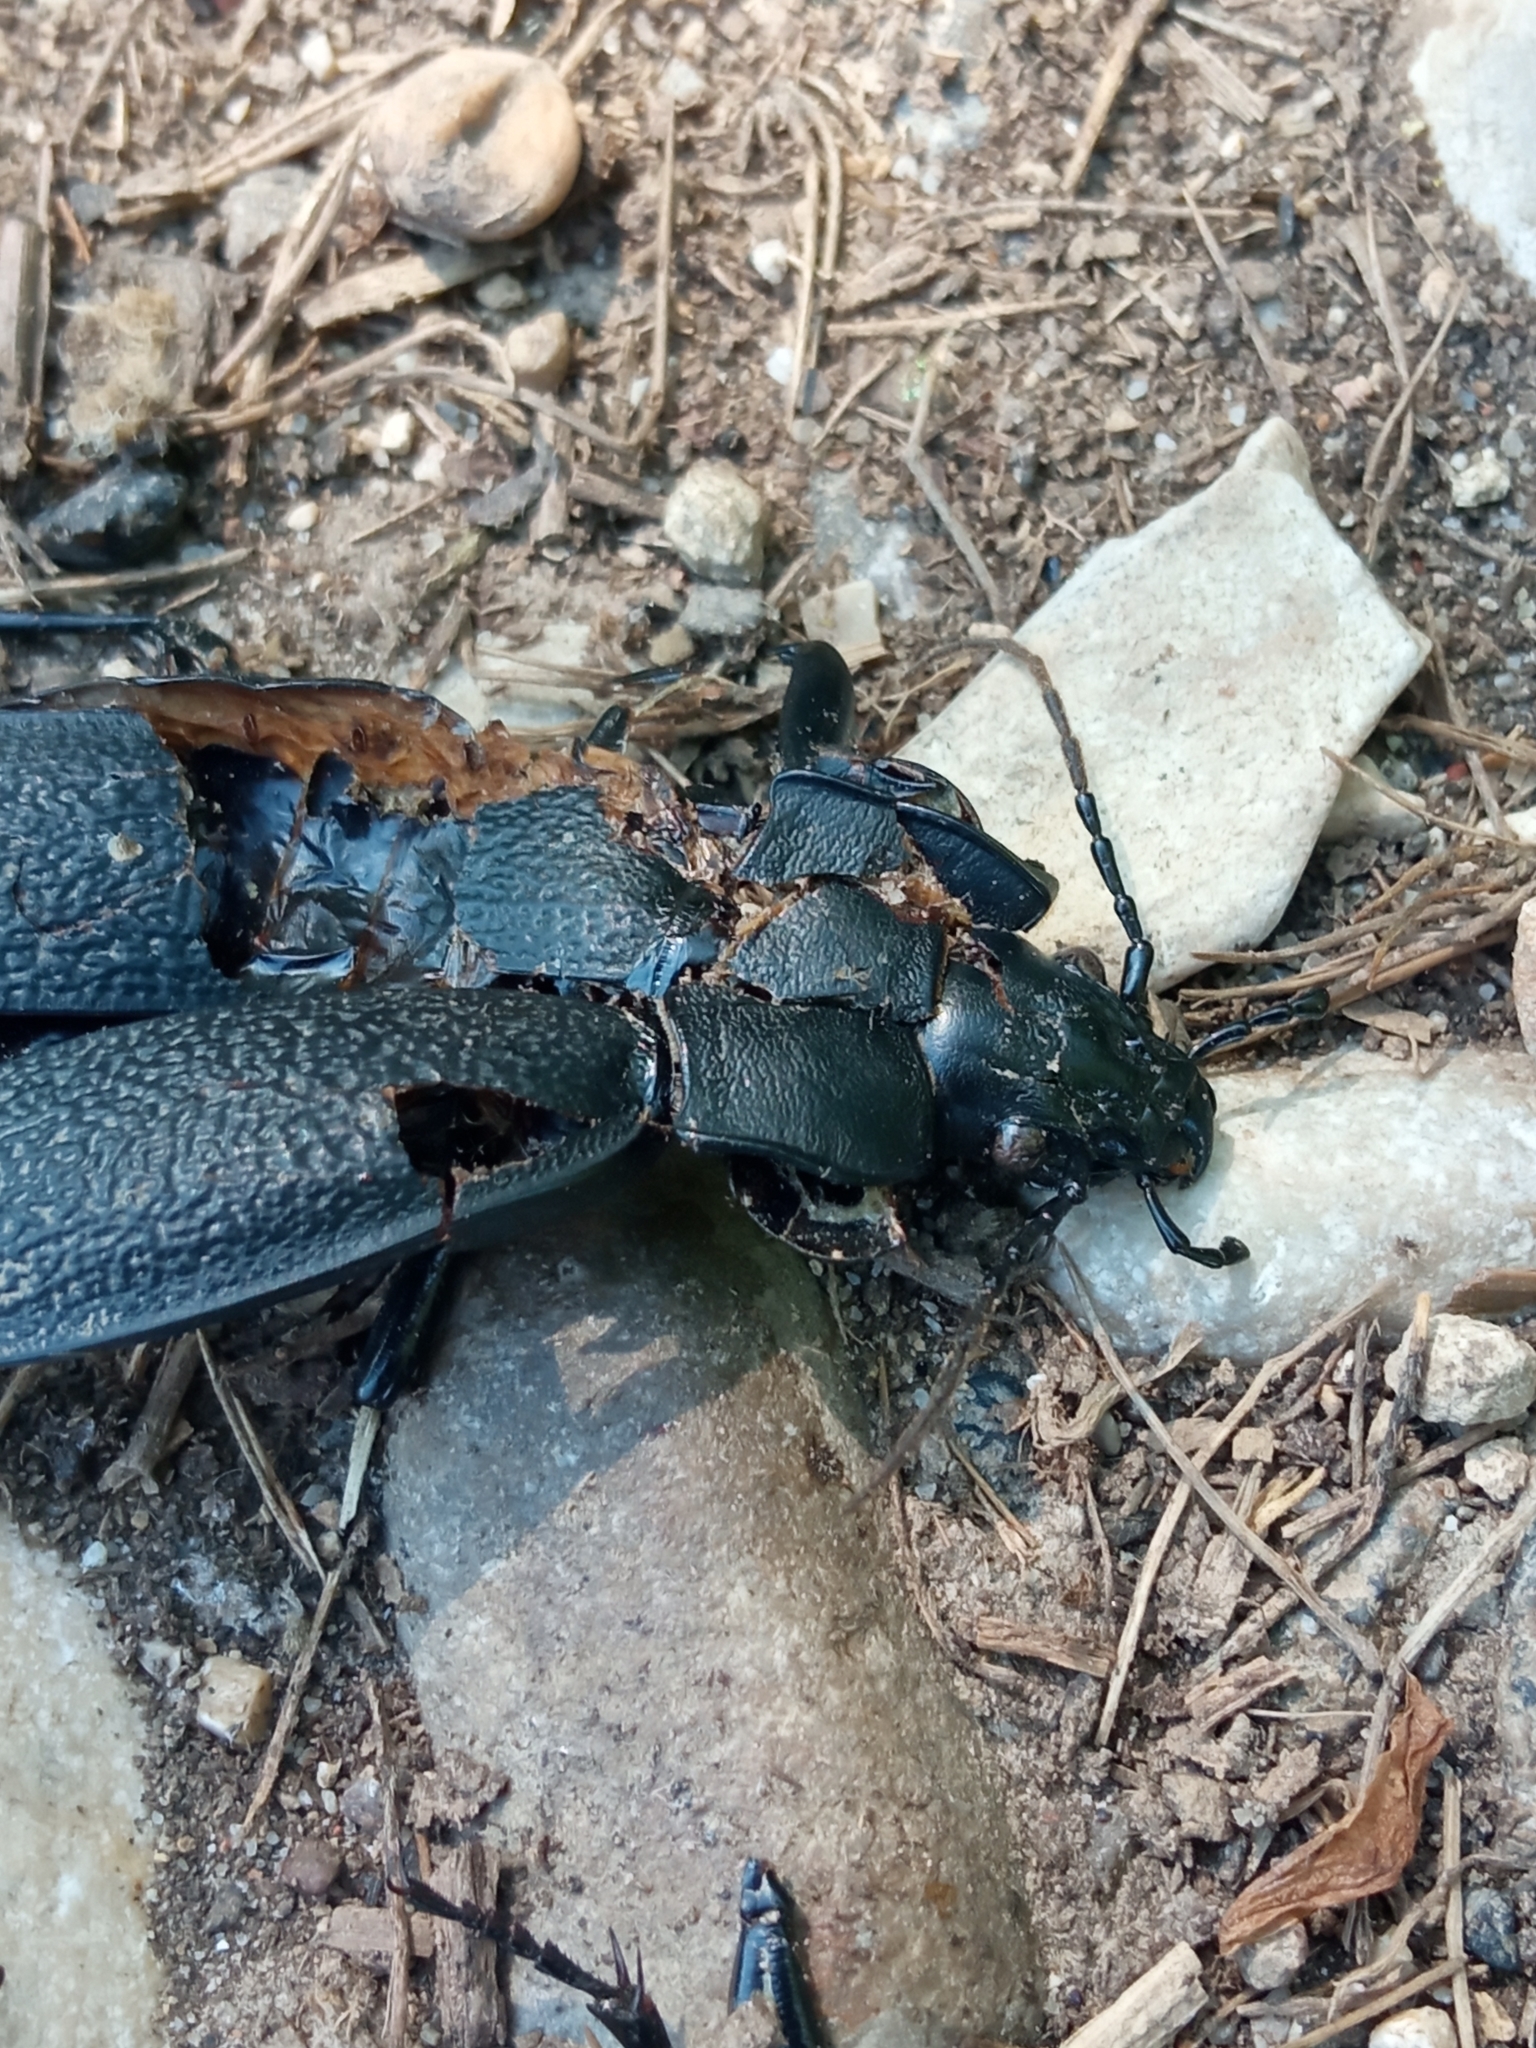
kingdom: Animalia
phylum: Arthropoda
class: Insecta
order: Coleoptera
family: Carabidae
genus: Carabus
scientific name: Carabus coriaceus
